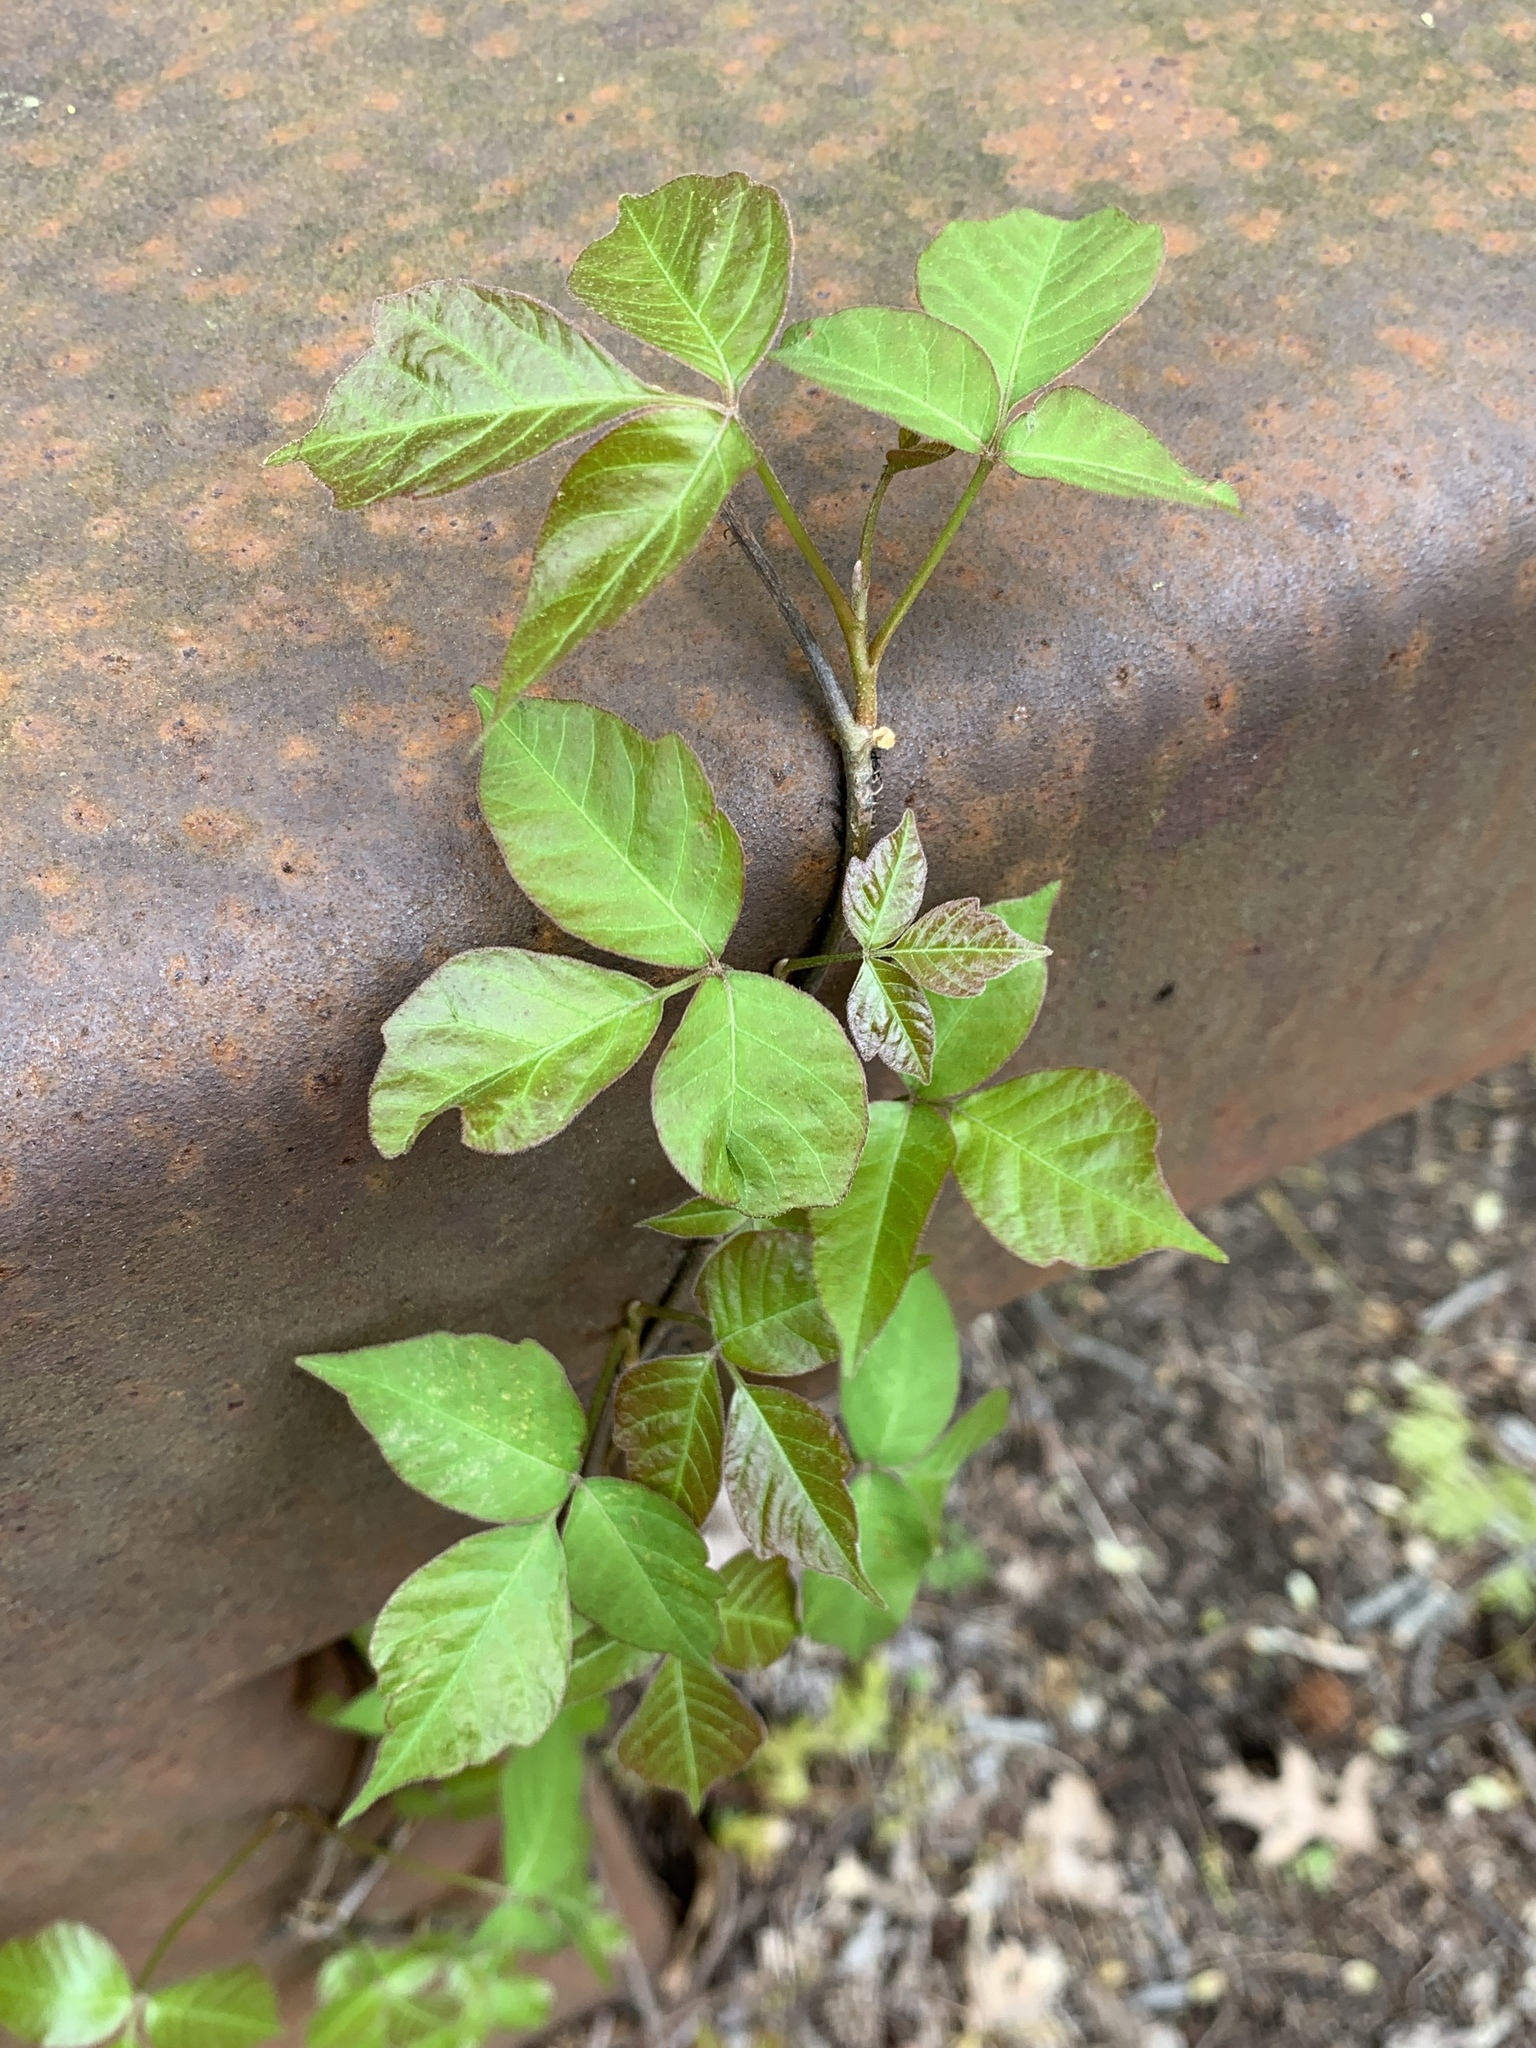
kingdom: Plantae
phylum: Tracheophyta
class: Magnoliopsida
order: Sapindales
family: Anacardiaceae
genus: Toxicodendron
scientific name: Toxicodendron radicans
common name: Poison ivy
